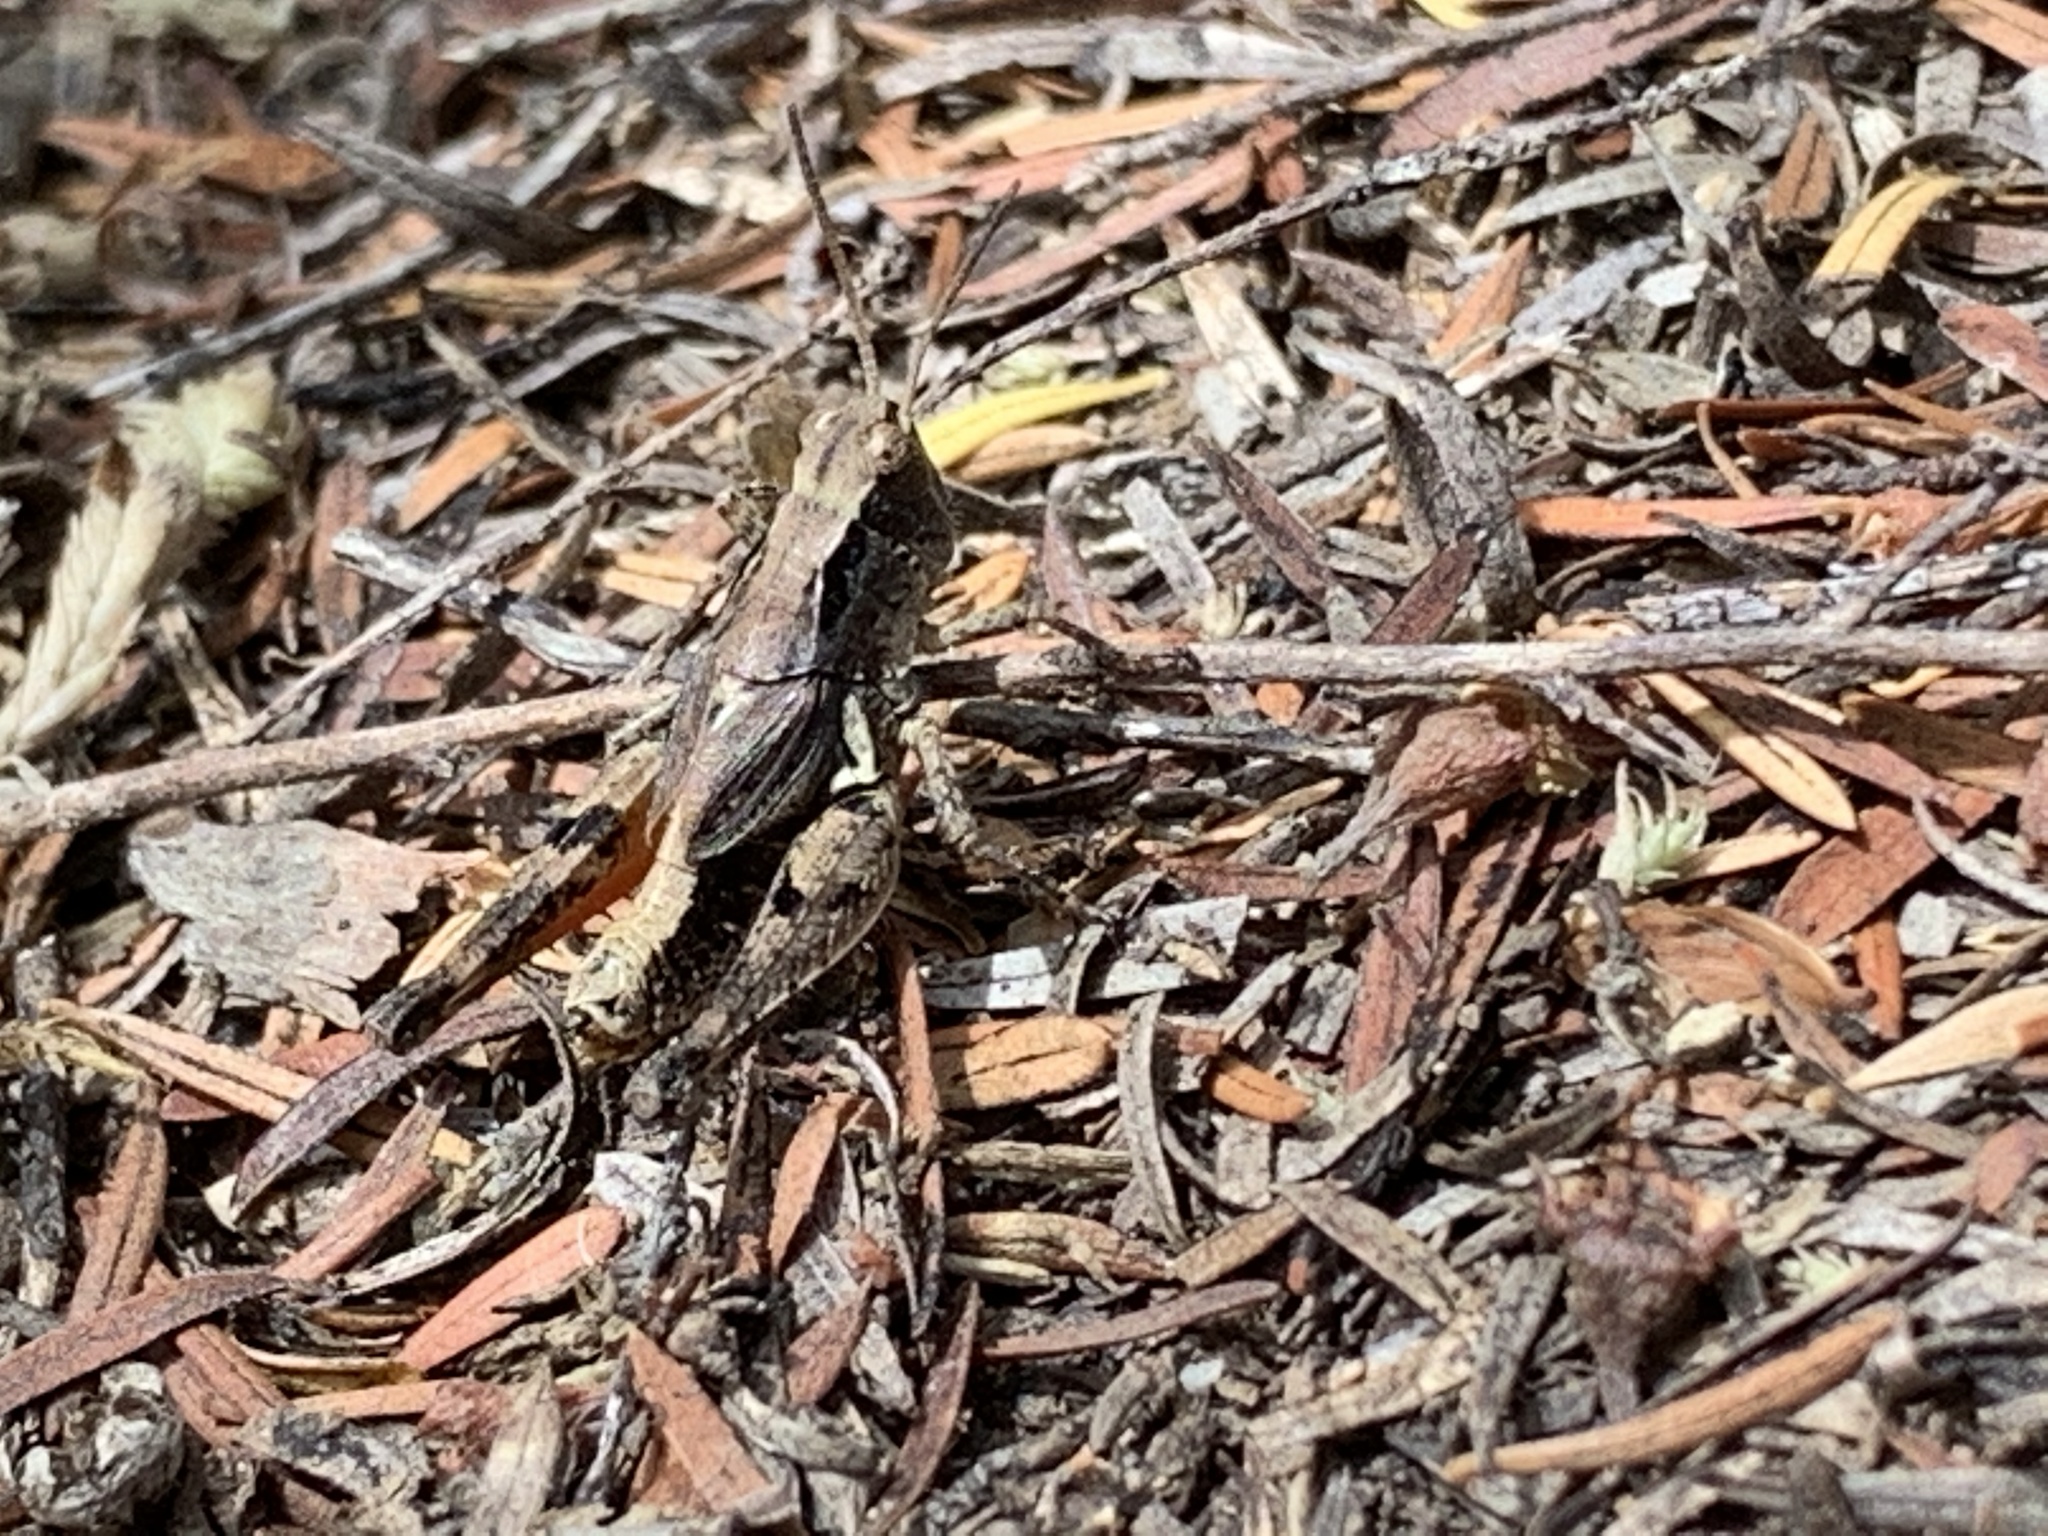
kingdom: Animalia
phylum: Arthropoda
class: Insecta
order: Orthoptera
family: Acrididae
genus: Phaulacridium
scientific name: Phaulacridium marginale
